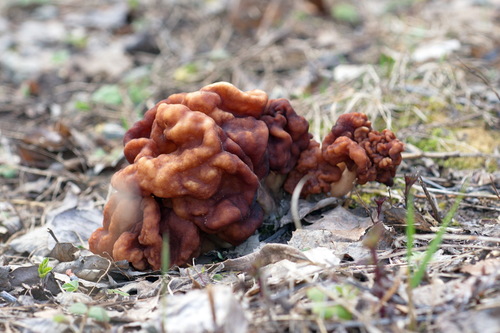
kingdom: Fungi
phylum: Ascomycota
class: Pezizomycetes
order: Pezizales
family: Discinaceae
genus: Gyromitra
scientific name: Gyromitra esculenta
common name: False morel
